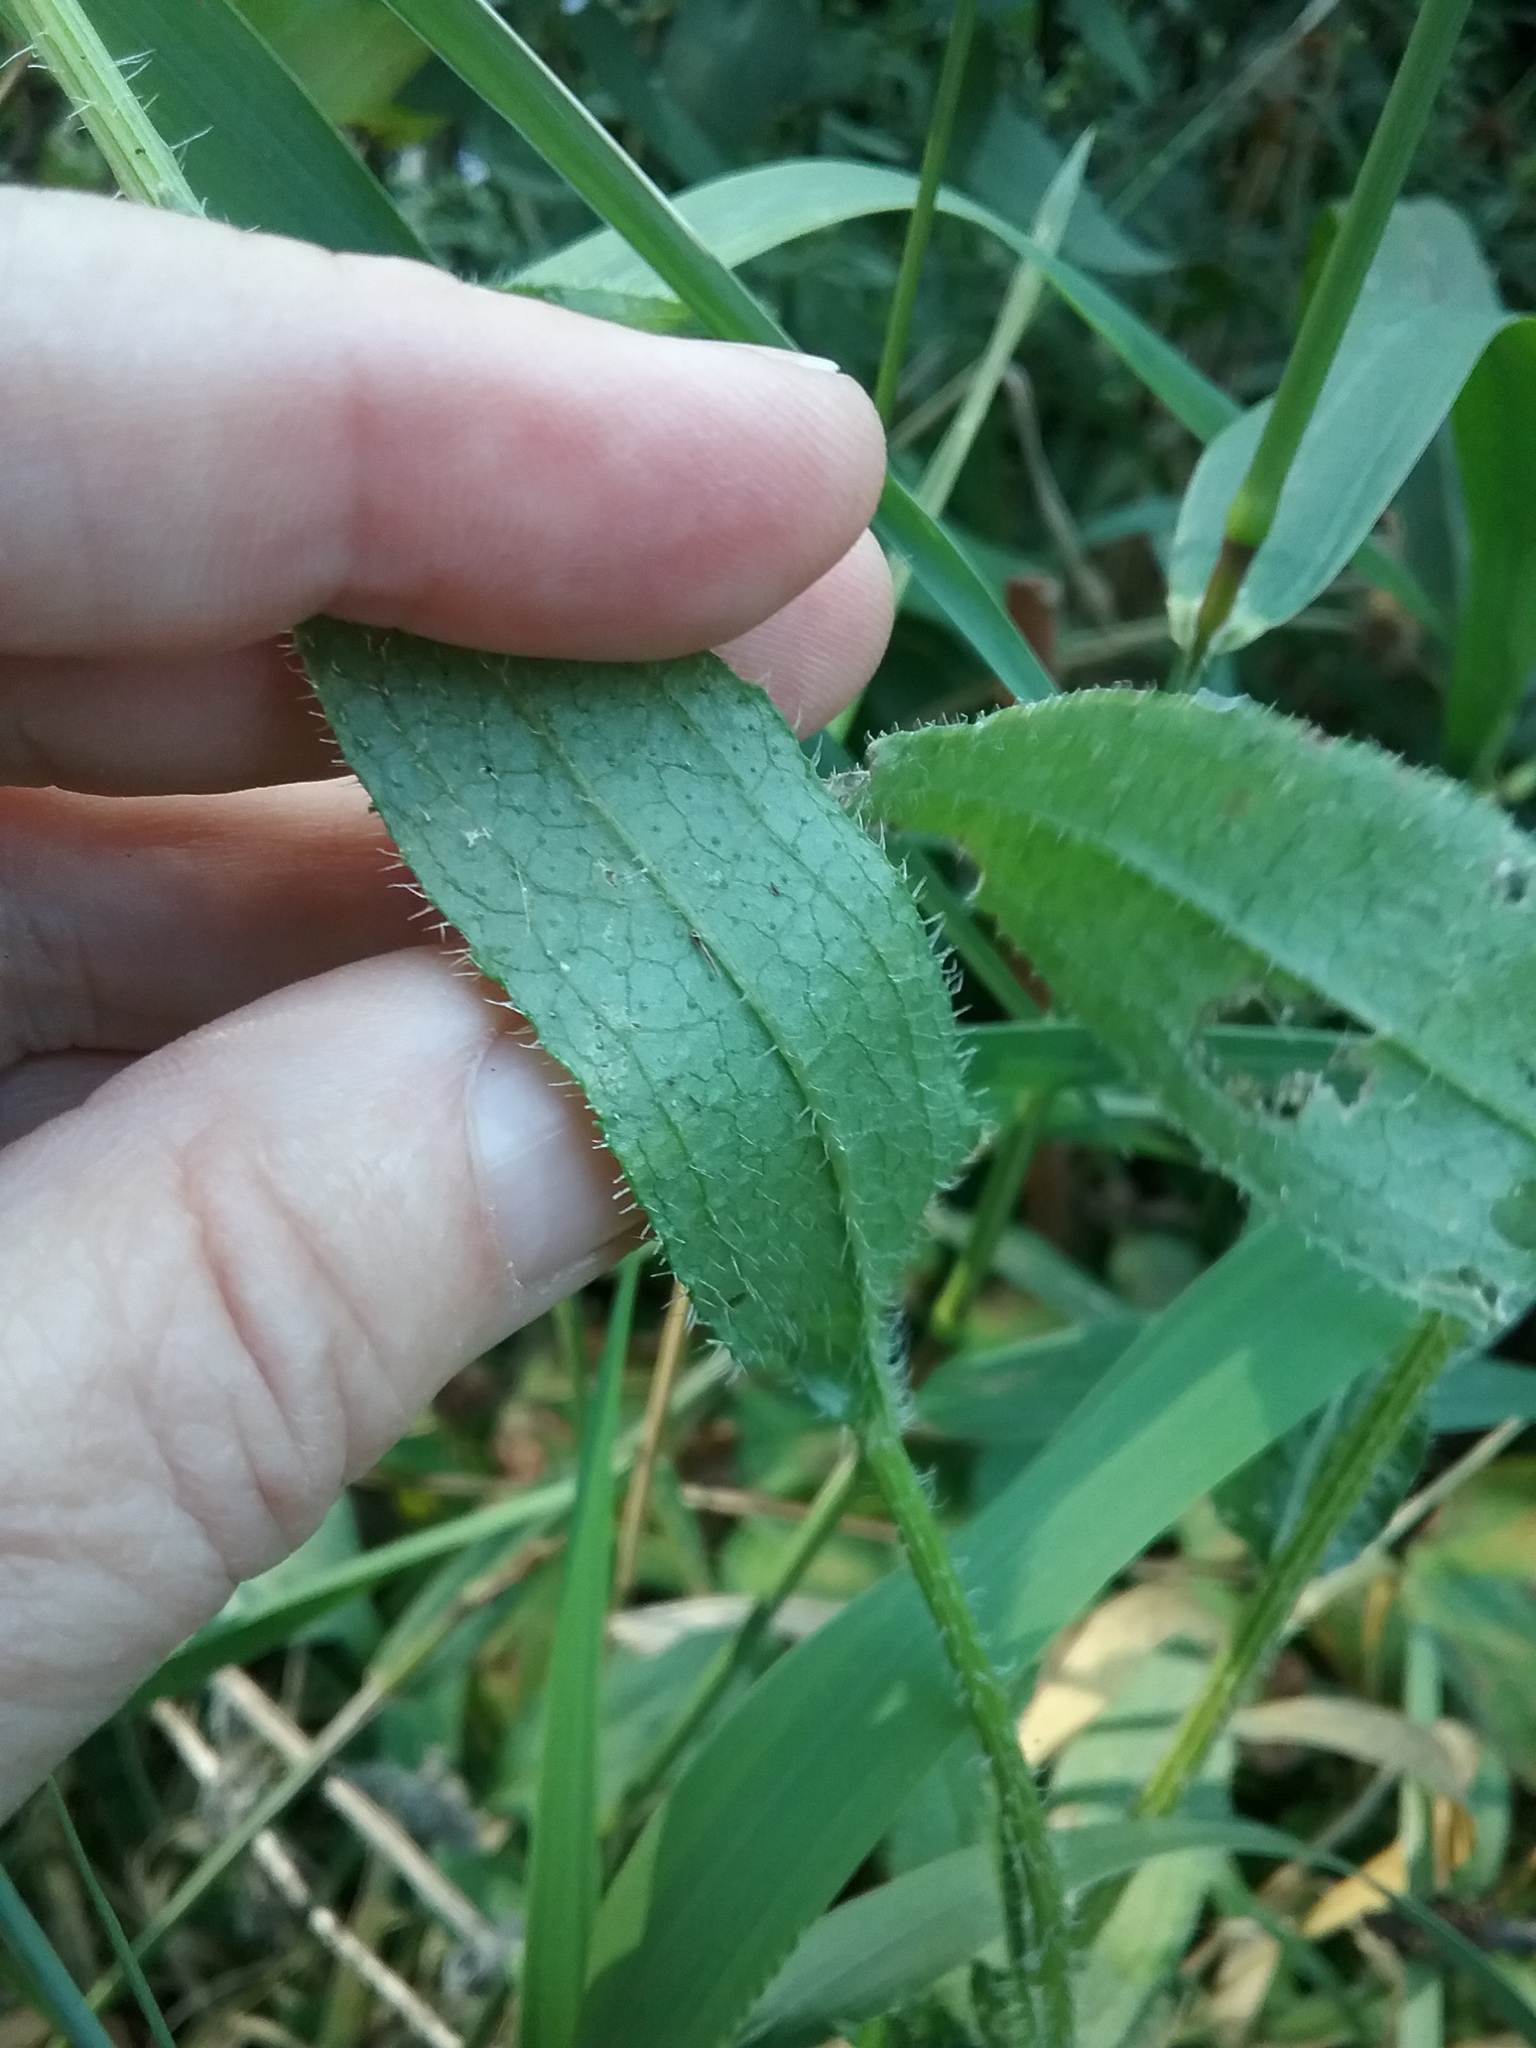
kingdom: Plantae
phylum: Tracheophyta
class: Magnoliopsida
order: Asterales
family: Asteraceae
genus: Rudbeckia
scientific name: Rudbeckia hirta
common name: Black-eyed-susan
